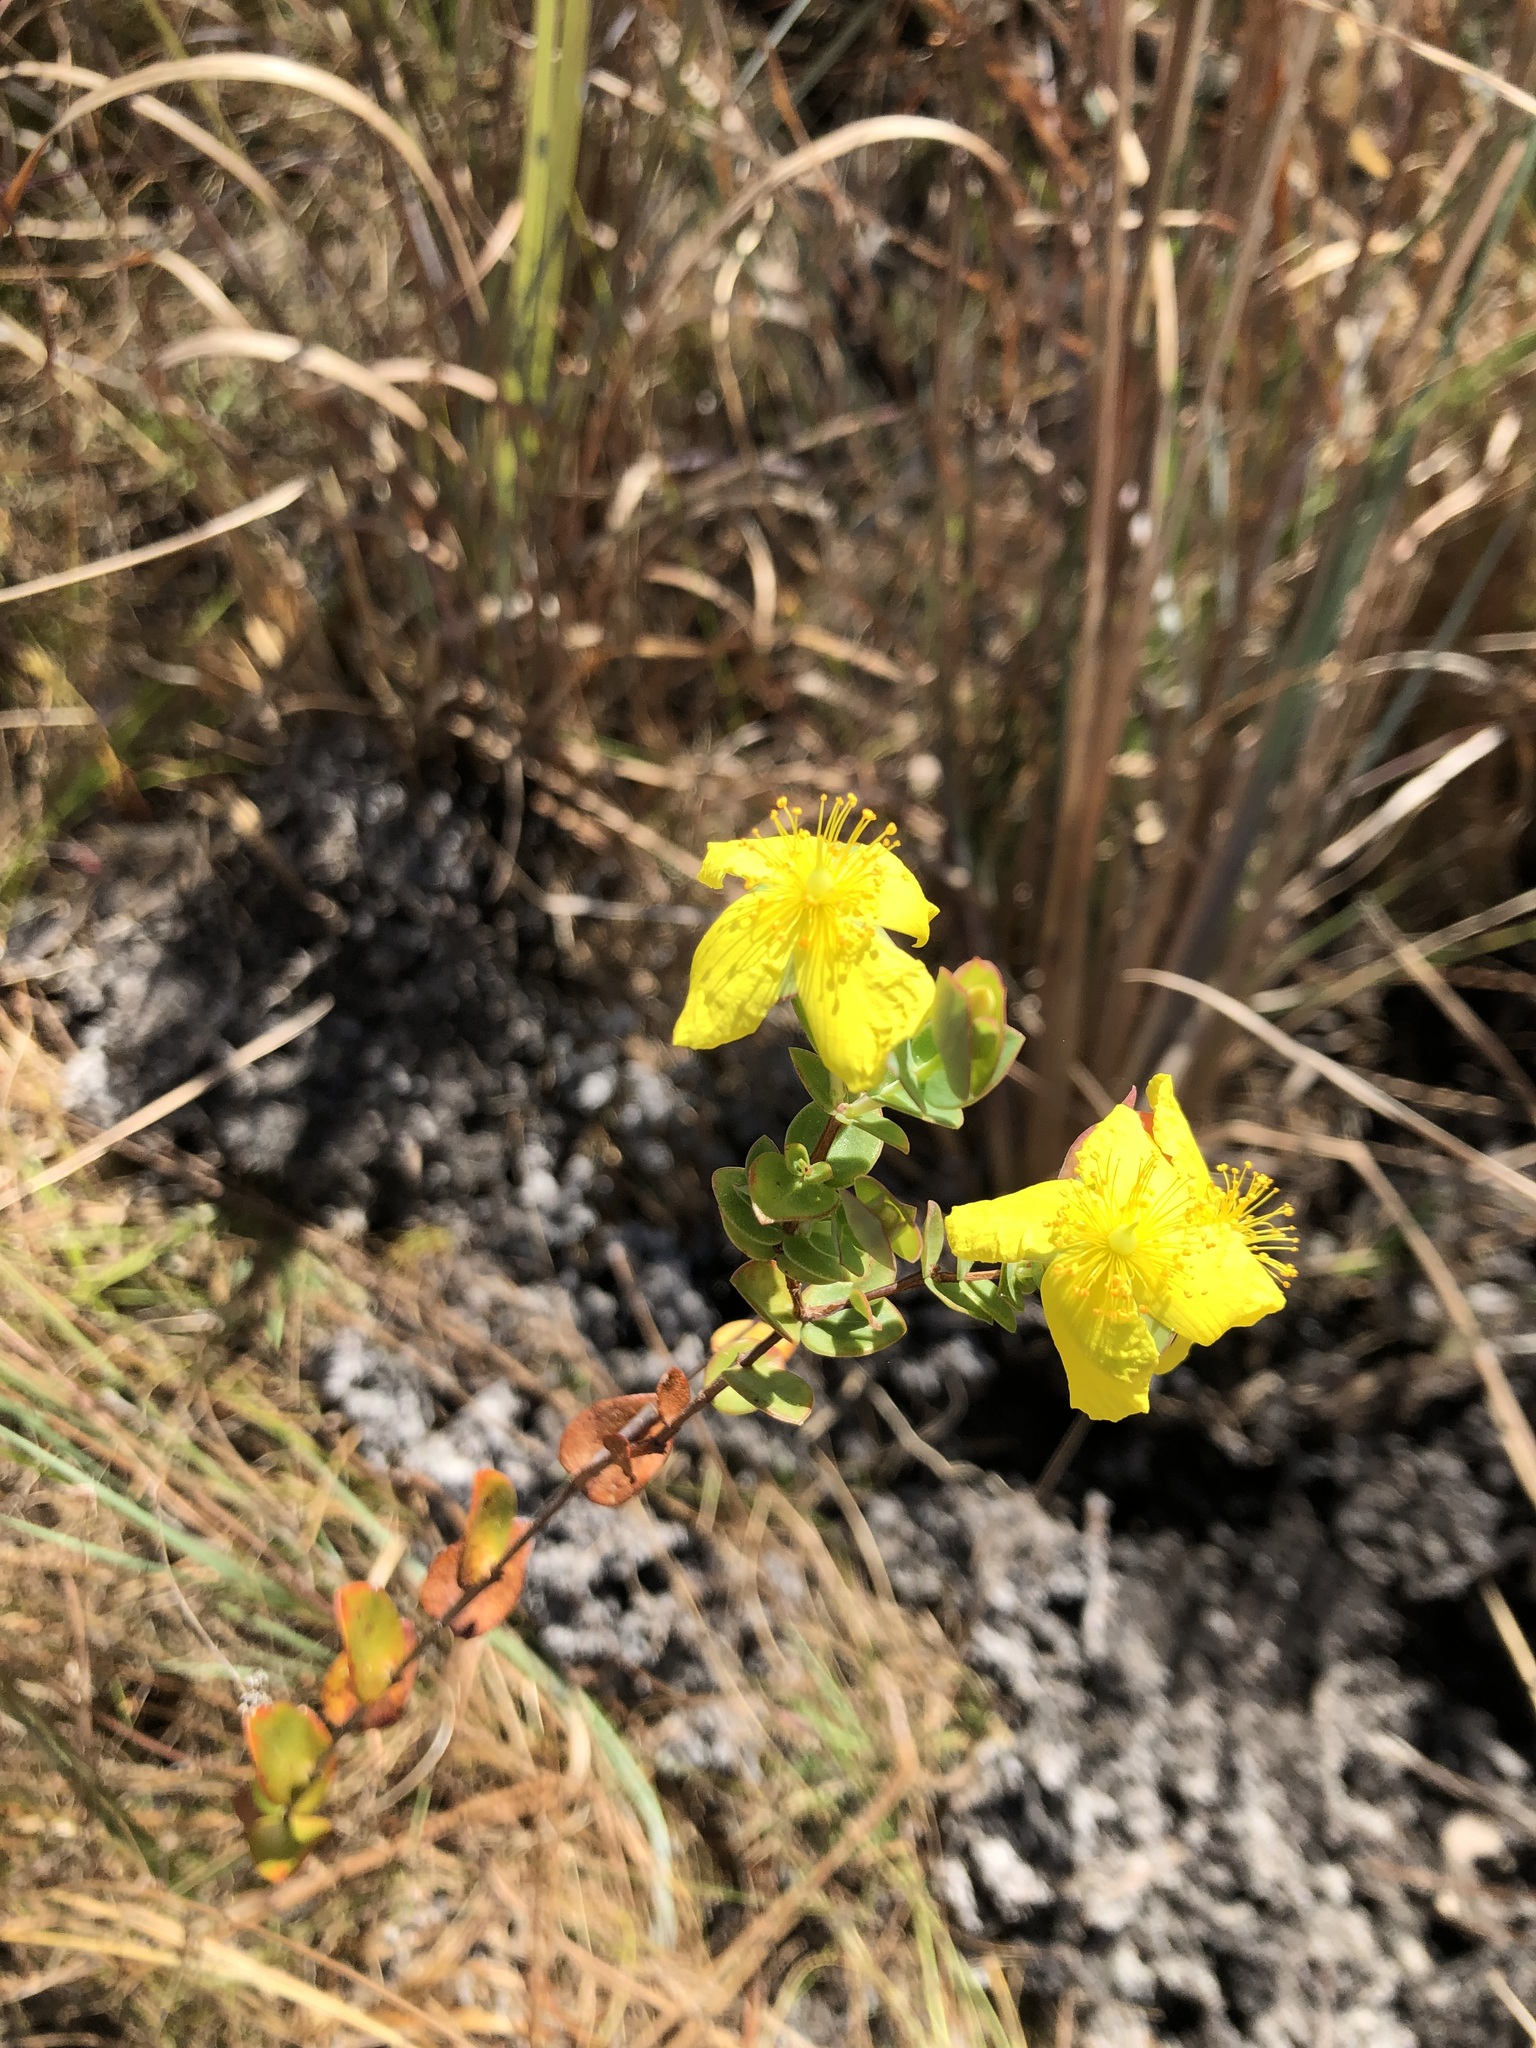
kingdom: Plantae
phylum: Tracheophyta
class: Magnoliopsida
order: Malpighiales
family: Hypericaceae
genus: Hypericum
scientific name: Hypericum tetrapetalum
